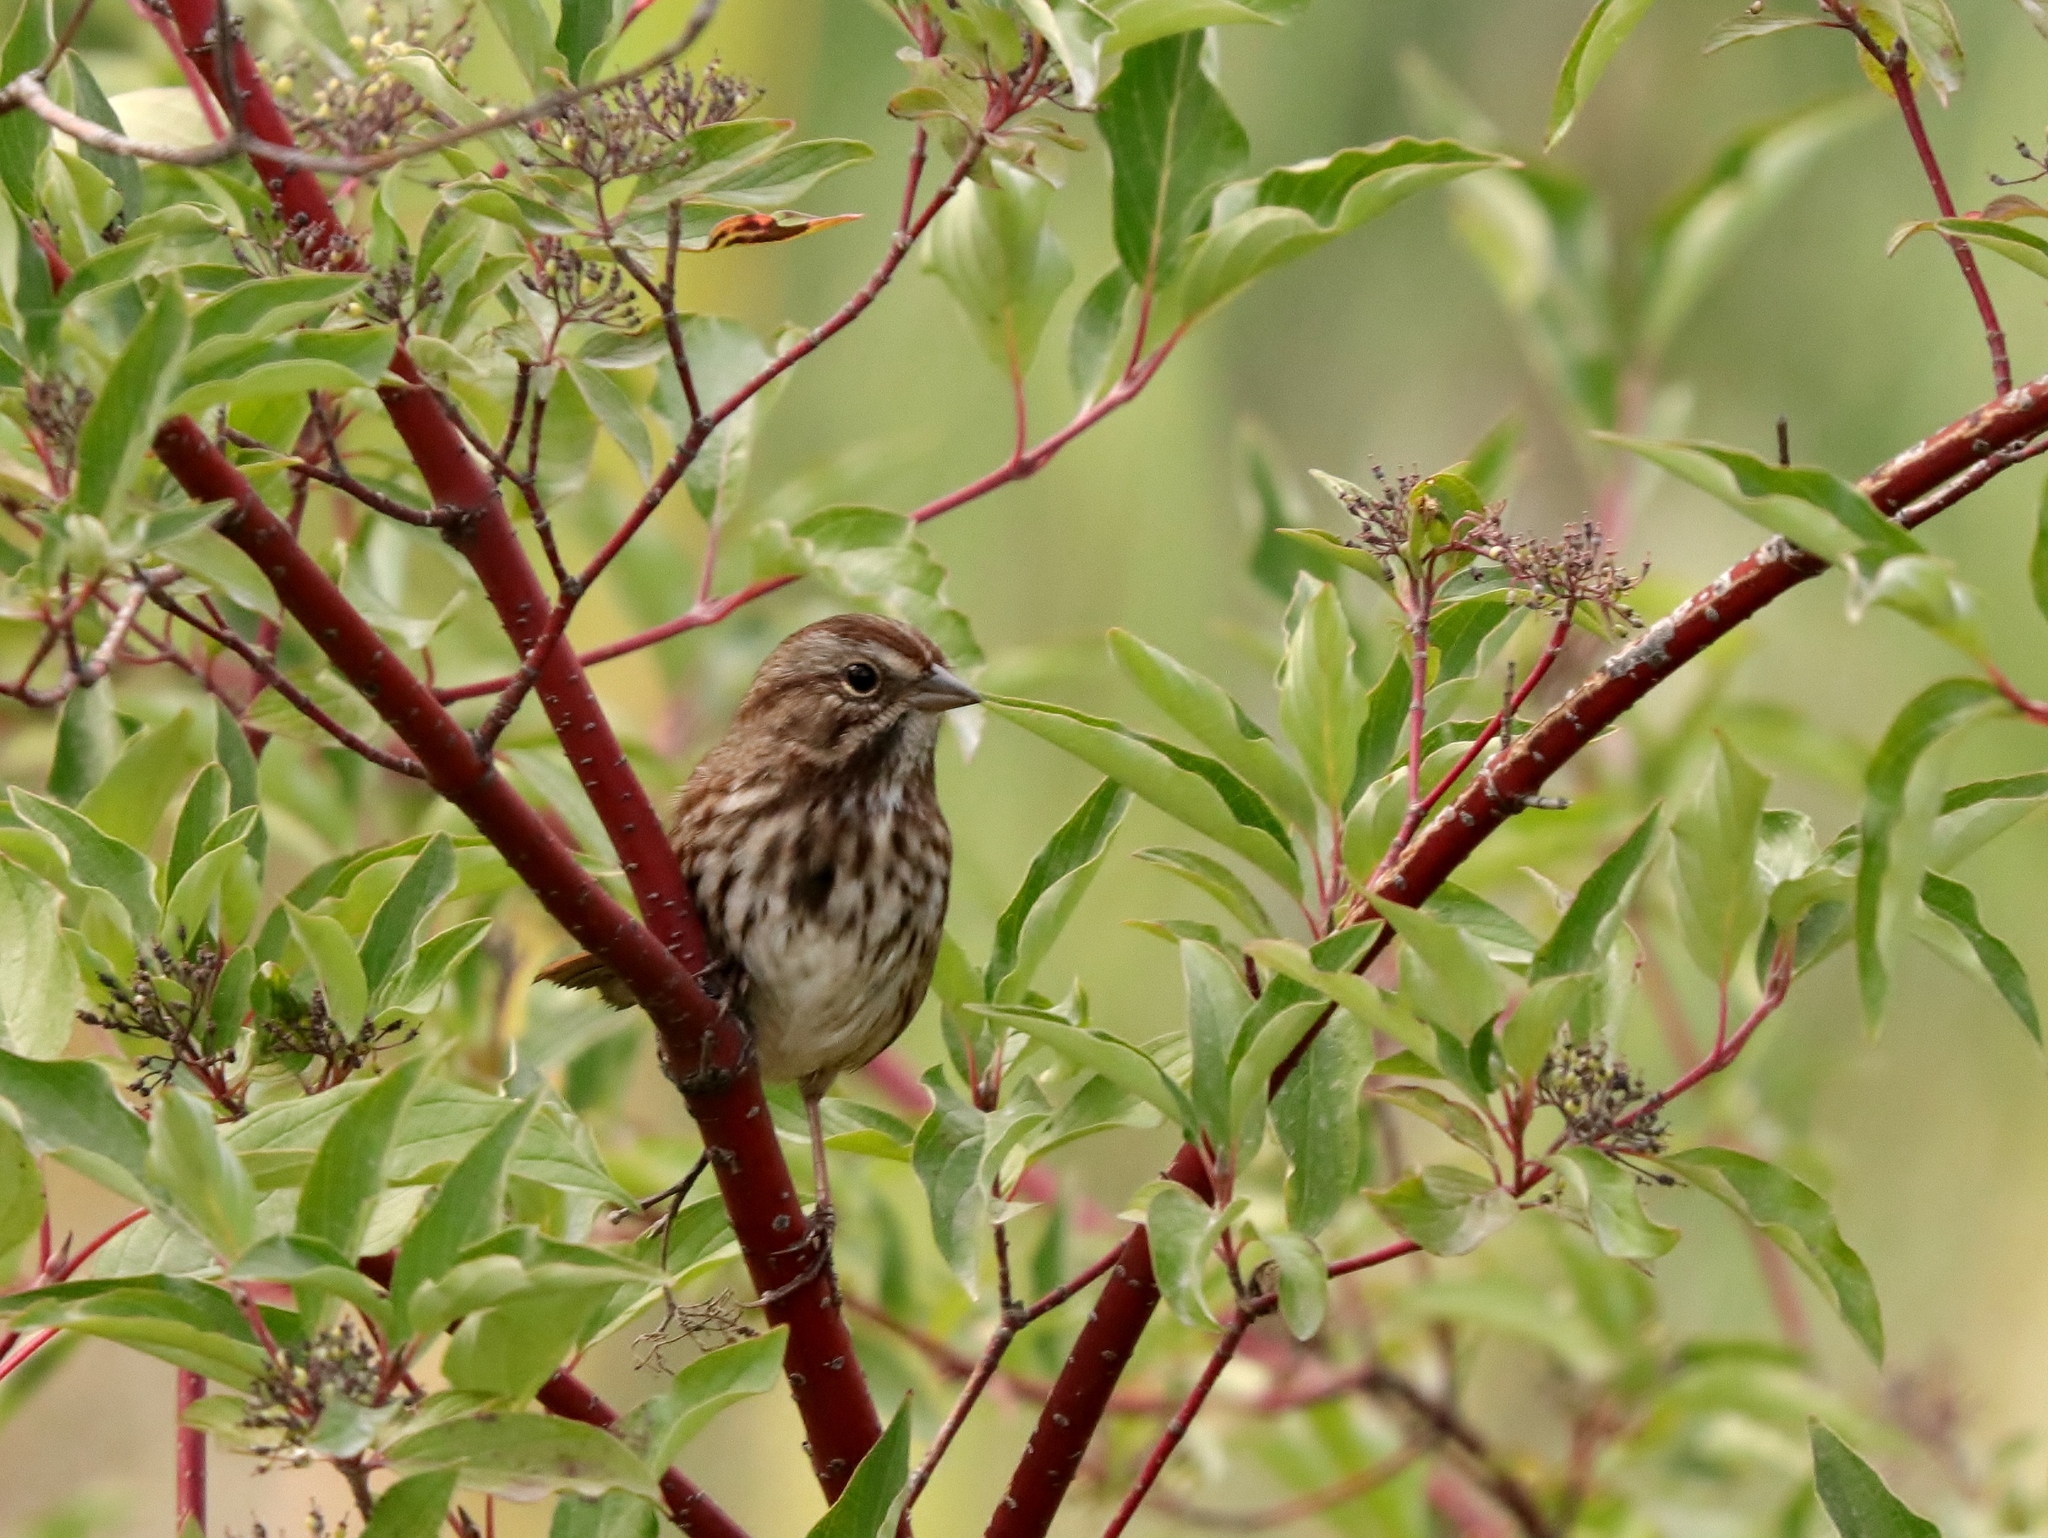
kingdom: Animalia
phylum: Chordata
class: Aves
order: Passeriformes
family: Passerellidae
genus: Melospiza
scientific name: Melospiza melodia
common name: Song sparrow
